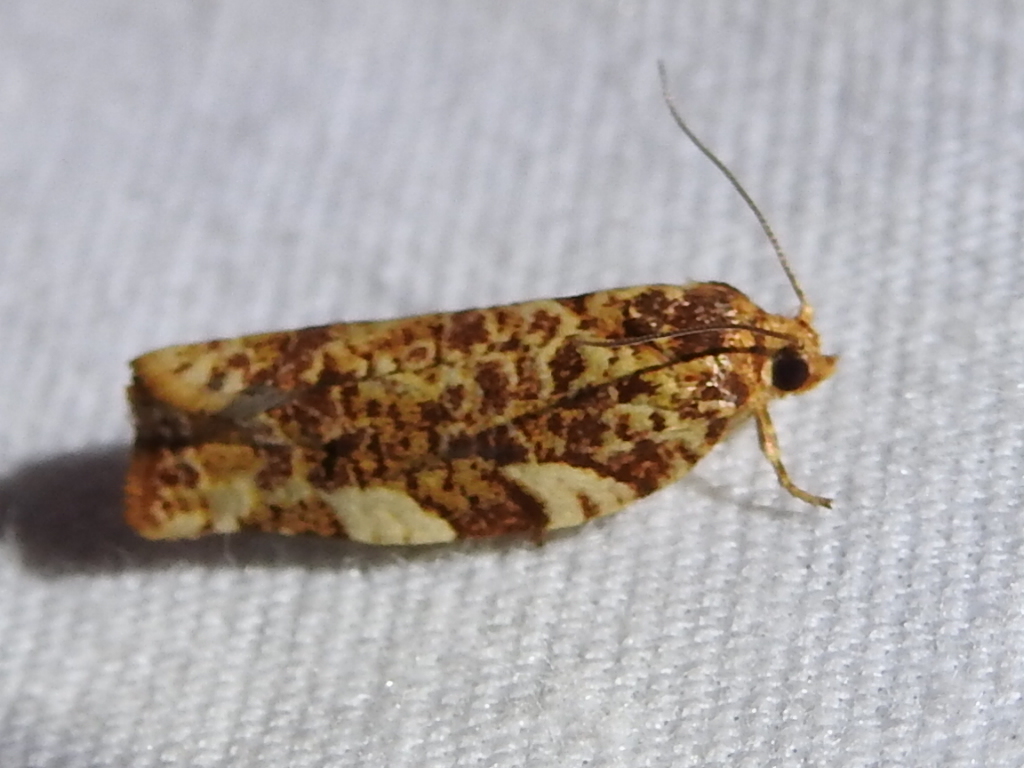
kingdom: Animalia
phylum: Arthropoda
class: Insecta
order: Lepidoptera
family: Tortricidae
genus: Archips
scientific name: Archips argyrospila
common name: Fruit-tree leafroller moth
